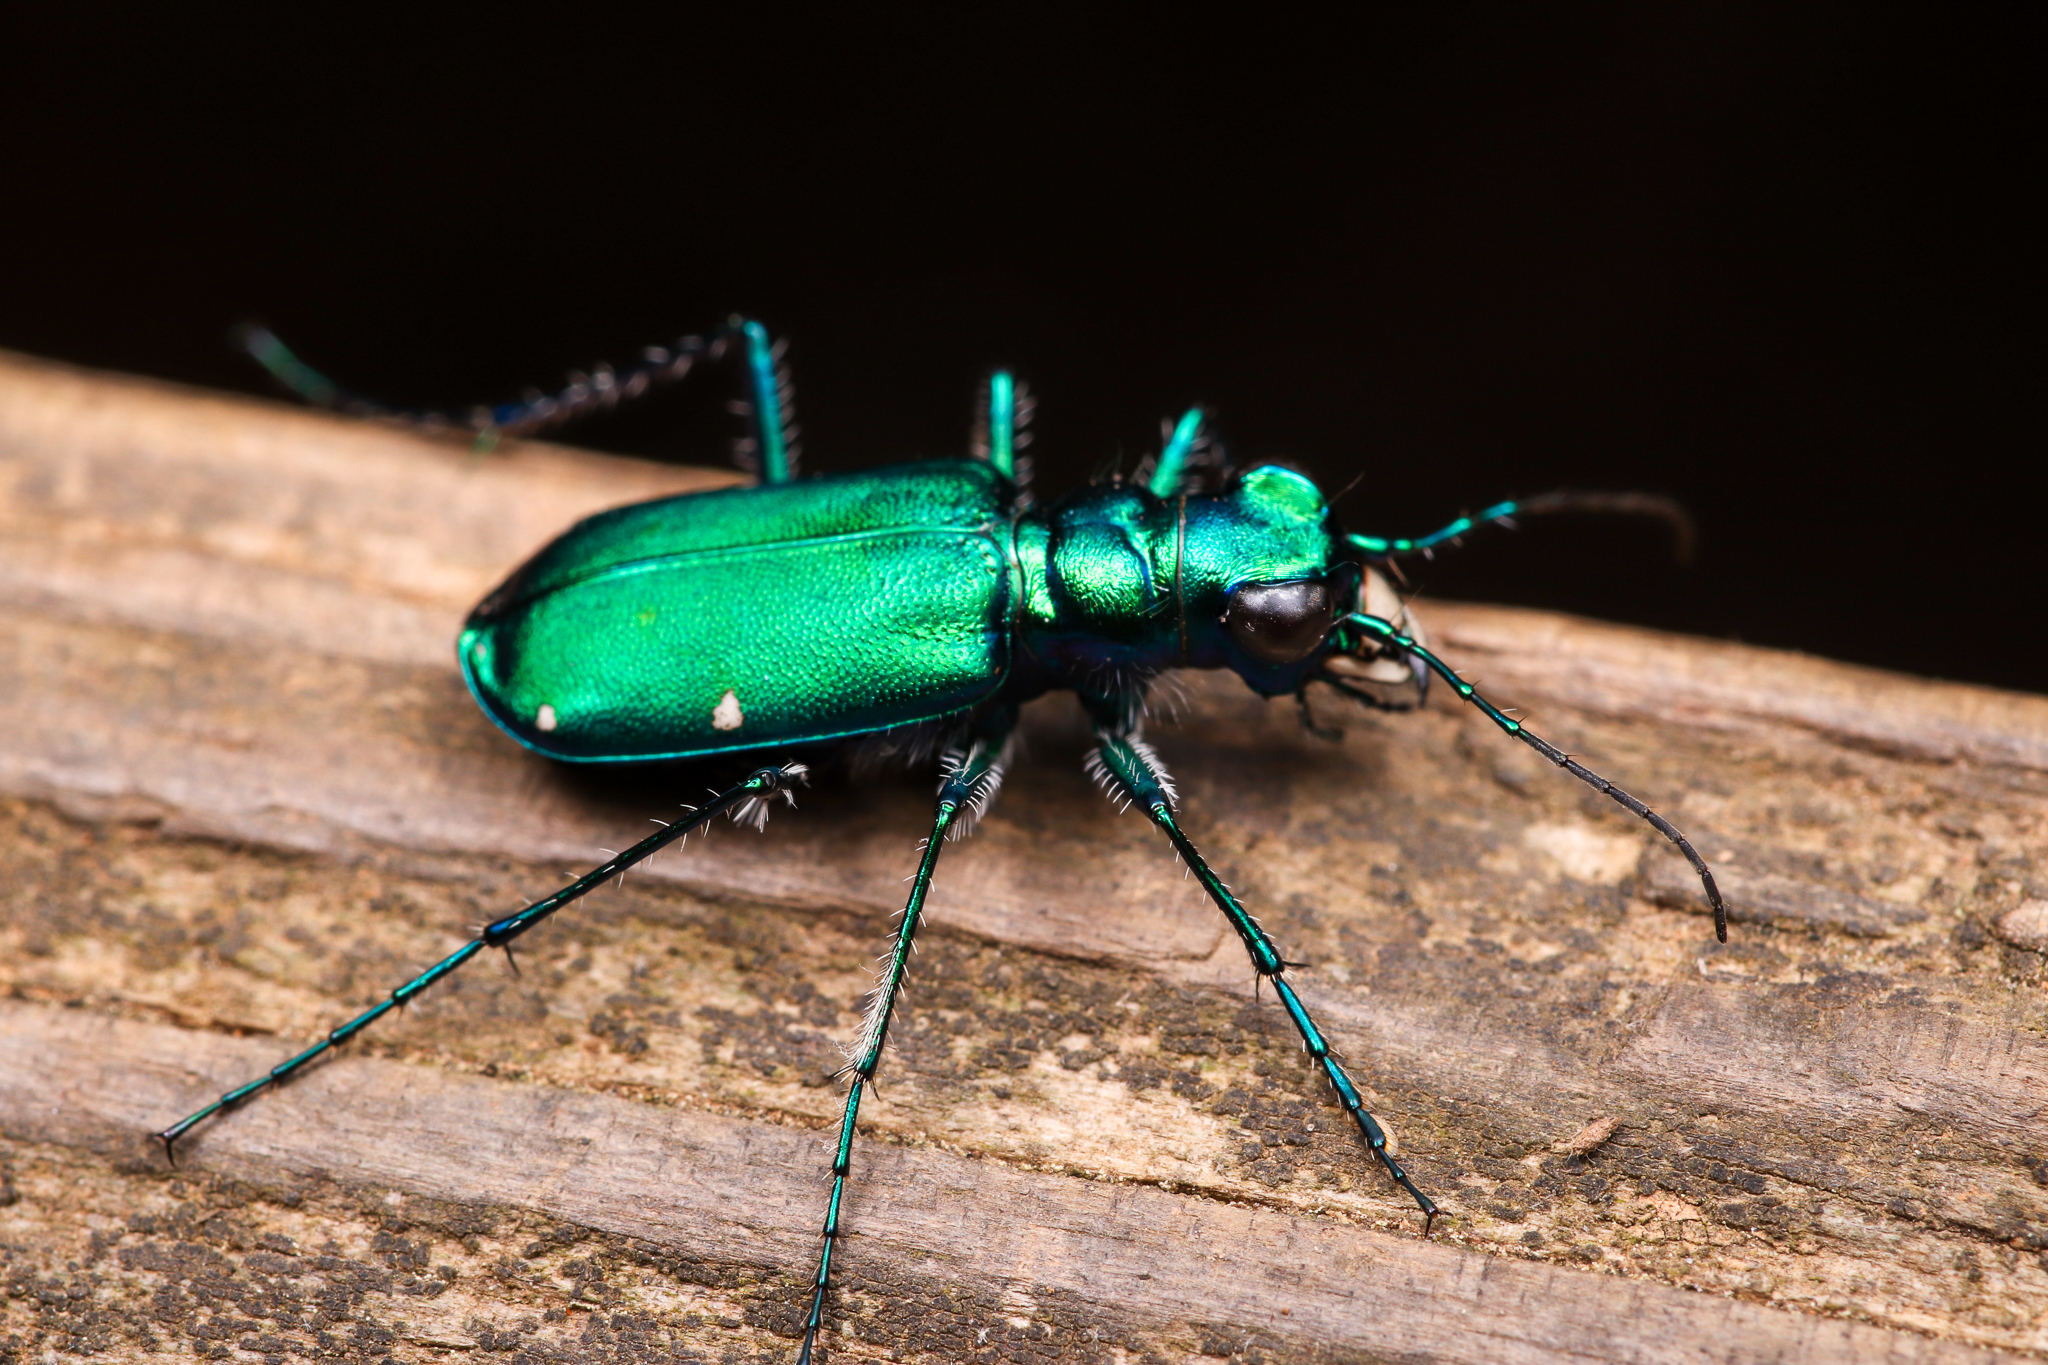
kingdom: Animalia
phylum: Arthropoda
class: Insecta
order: Coleoptera
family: Carabidae
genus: Cicindela
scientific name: Cicindela sexguttata
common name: Six-spotted tiger beetle
